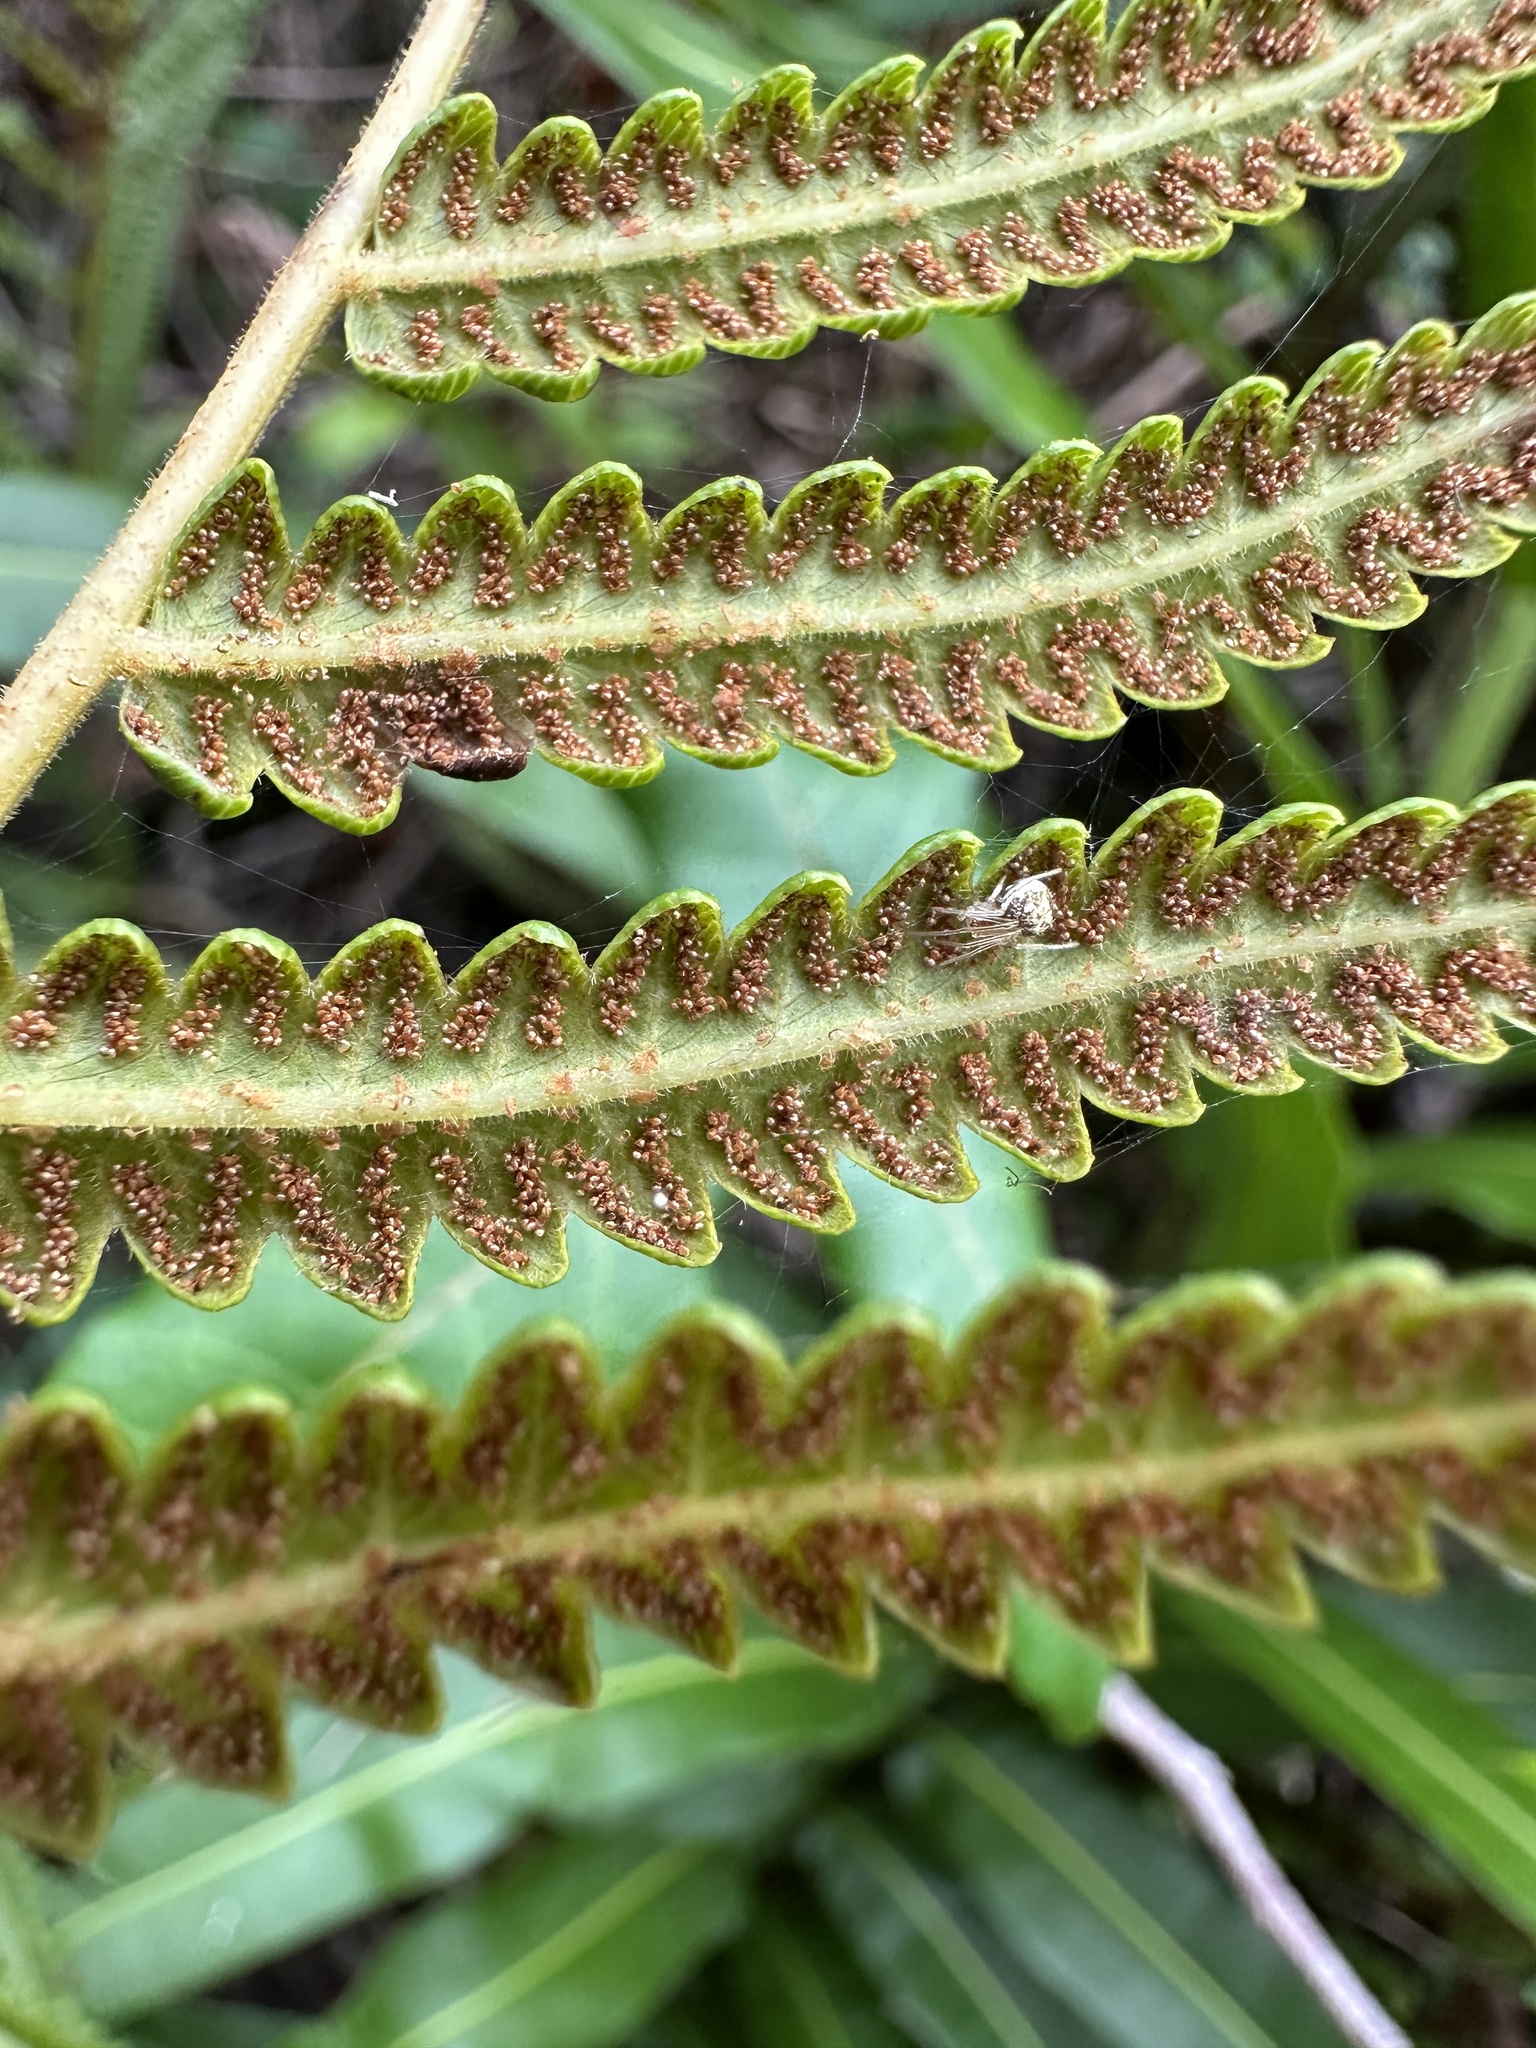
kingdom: Plantae
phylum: Tracheophyta
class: Polypodiopsida
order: Polypodiales
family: Thelypteridaceae
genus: Cyclosorus
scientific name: Cyclosorus interruptus
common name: Neke fern
